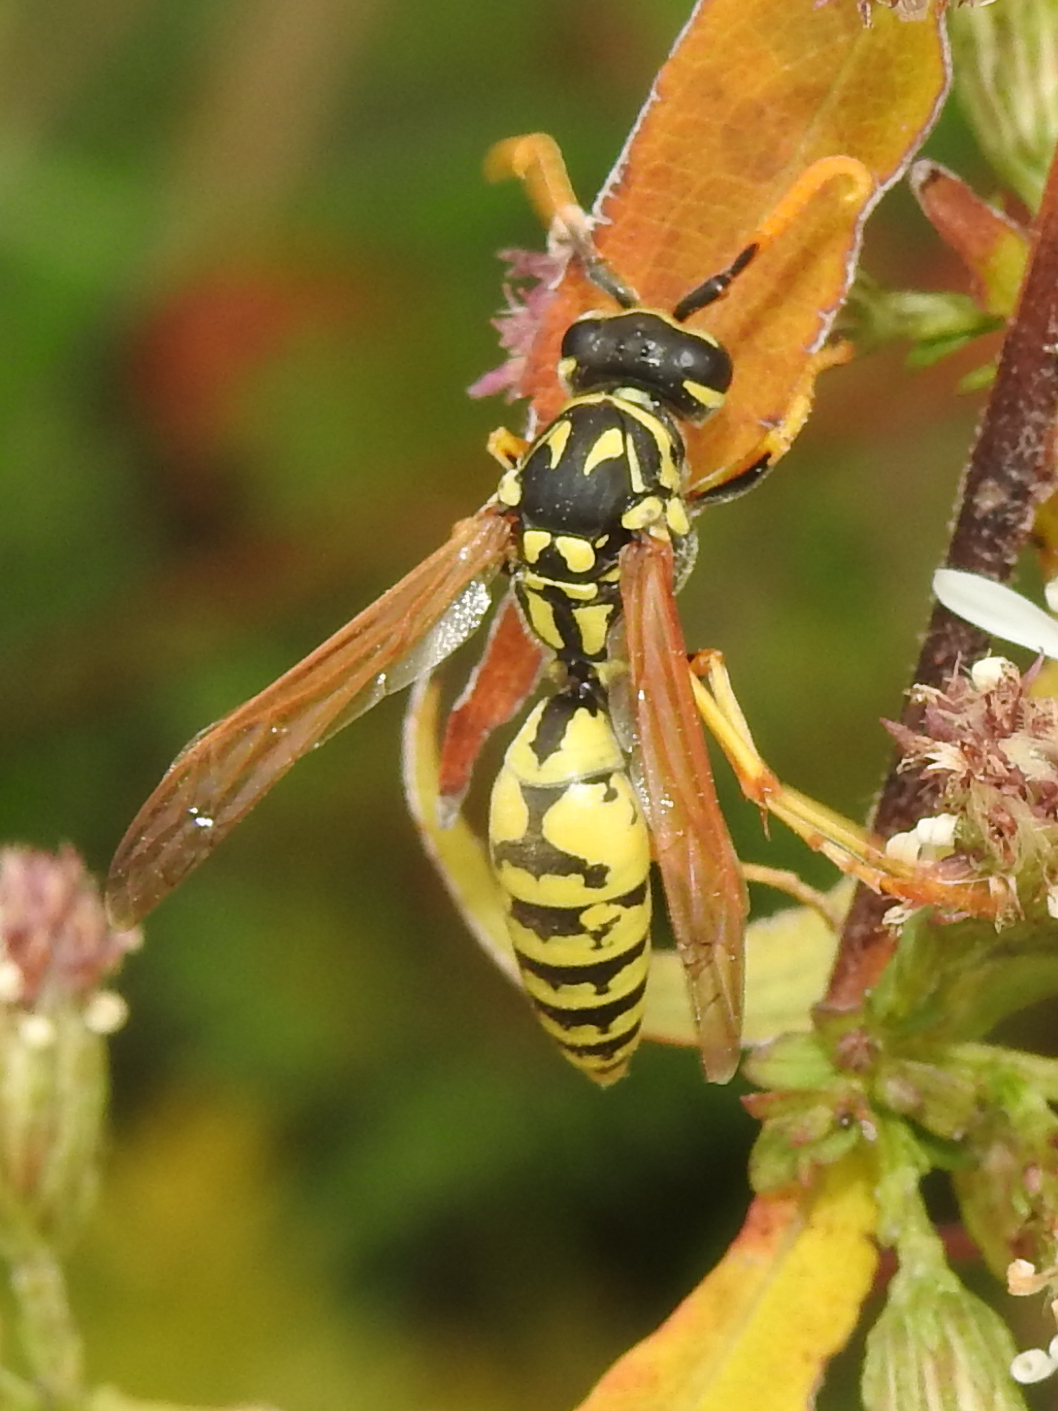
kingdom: Animalia
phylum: Arthropoda
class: Insecta
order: Hymenoptera
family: Eumenidae
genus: Polistes
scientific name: Polistes dominula
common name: Paper wasp
